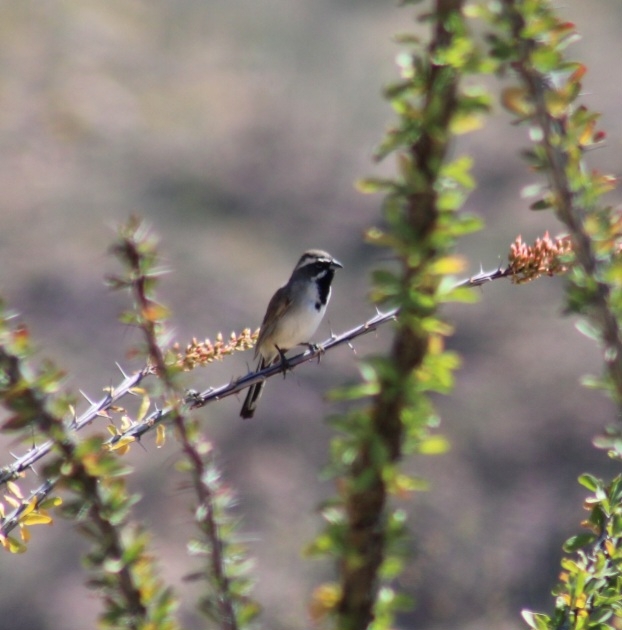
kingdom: Animalia
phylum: Chordata
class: Aves
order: Passeriformes
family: Passerellidae
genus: Amphispiza
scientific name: Amphispiza bilineata
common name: Black-throated sparrow
